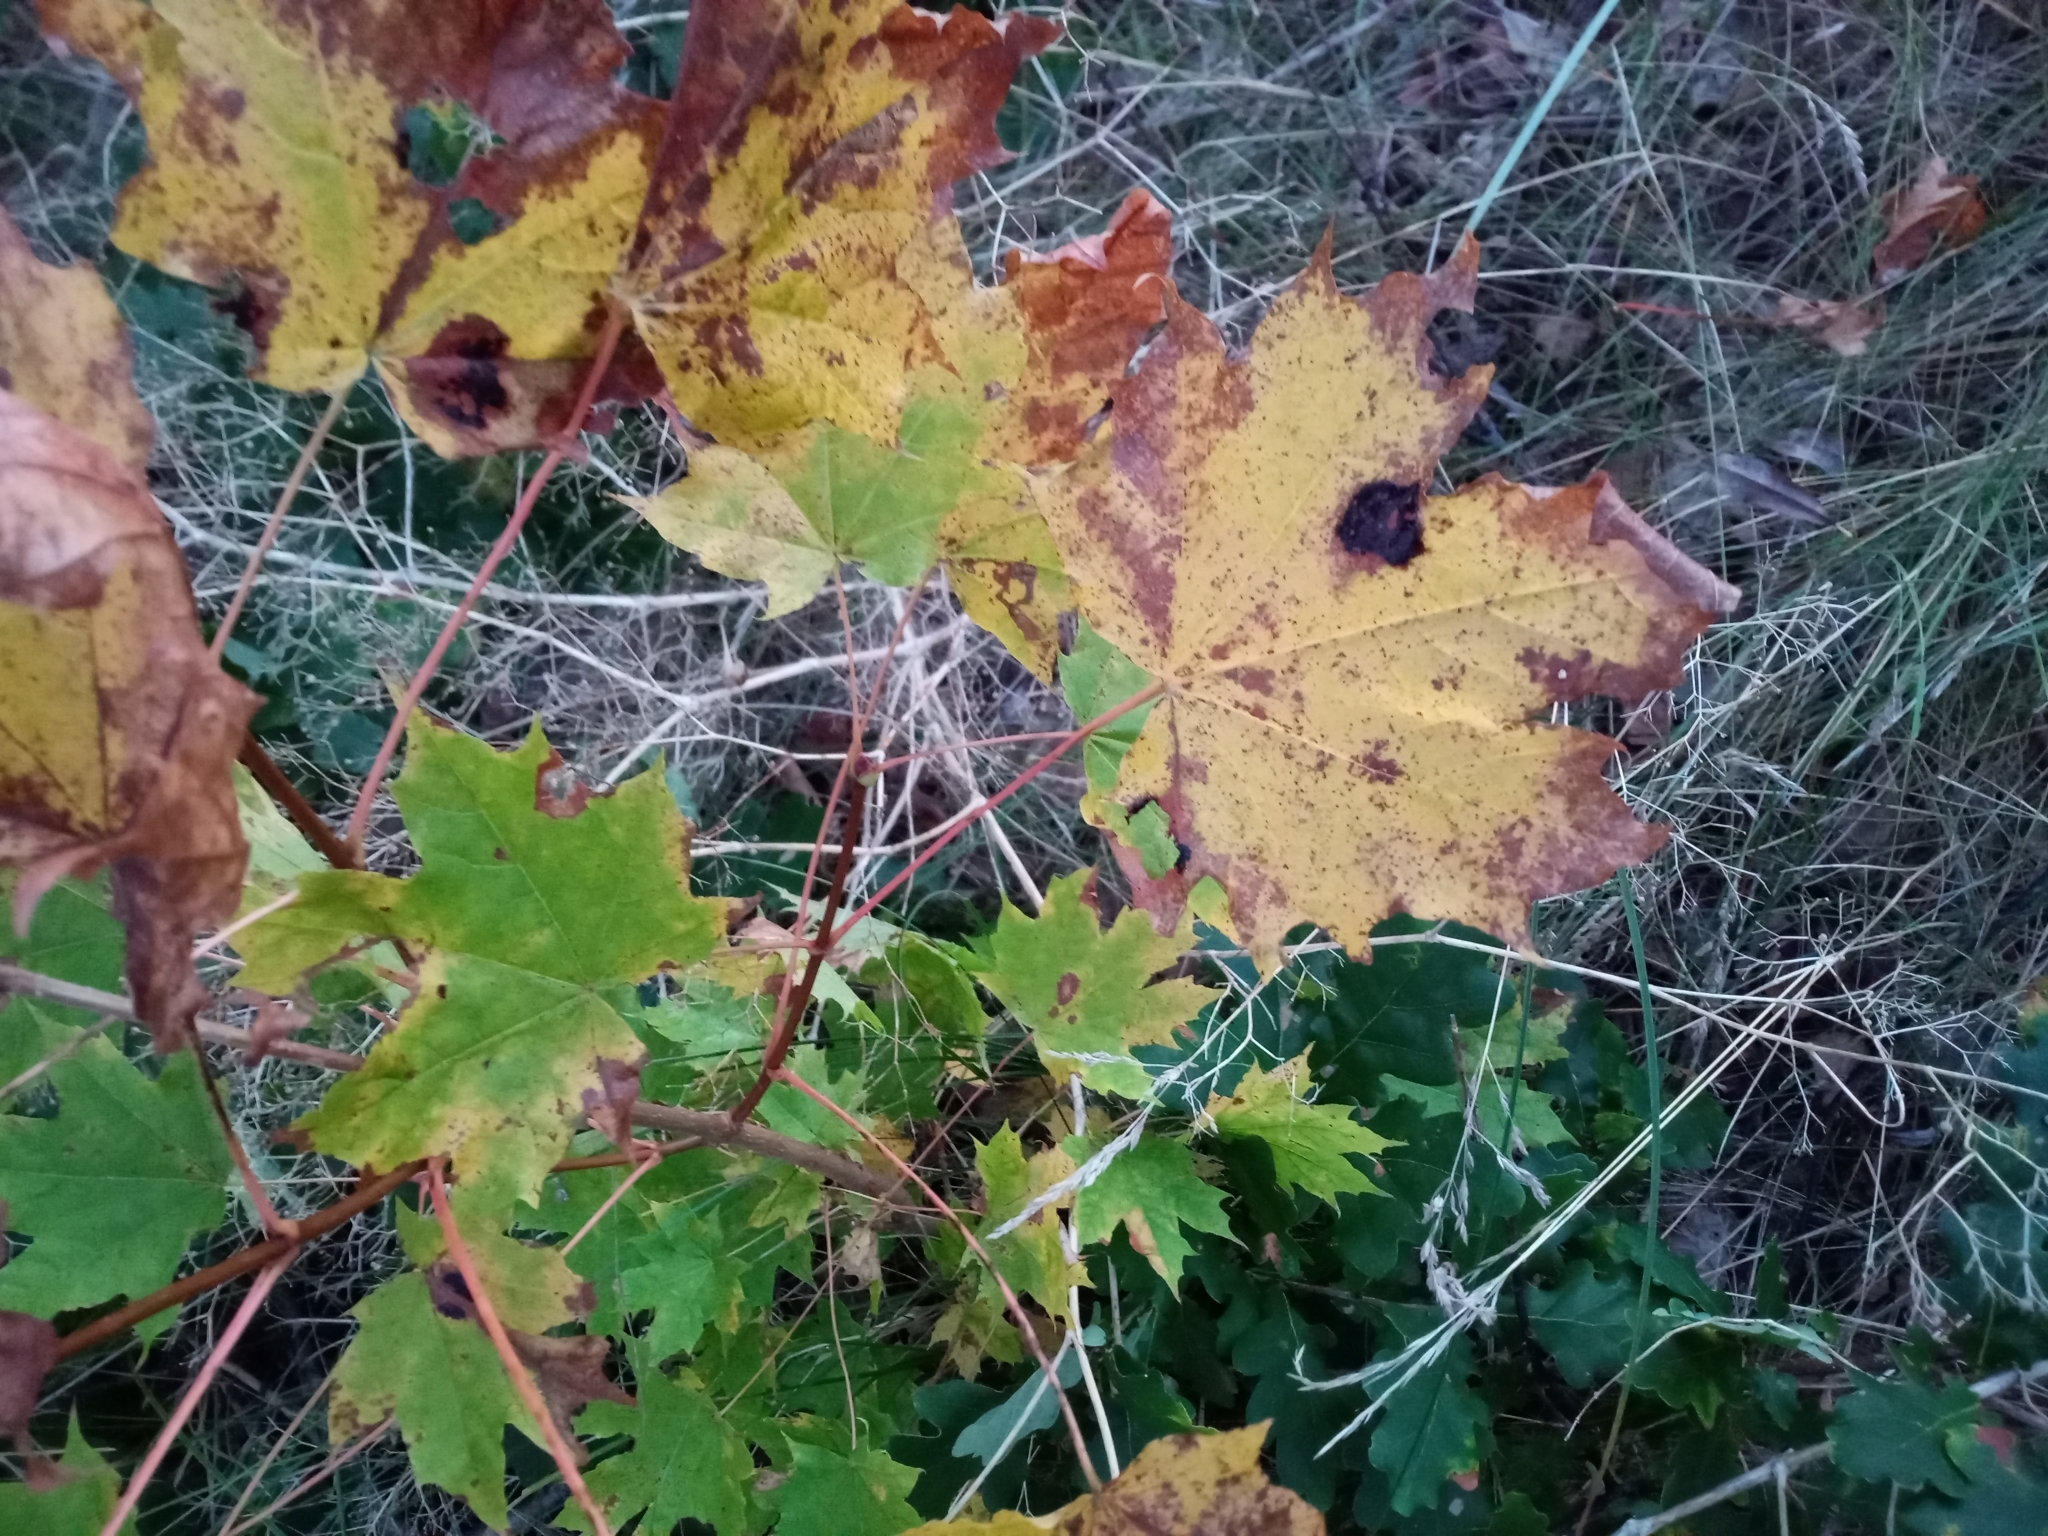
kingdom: Fungi
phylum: Ascomycota
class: Leotiomycetes
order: Rhytismatales
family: Rhytismataceae
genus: Rhytisma
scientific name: Rhytisma acerinum
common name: European tar spot
